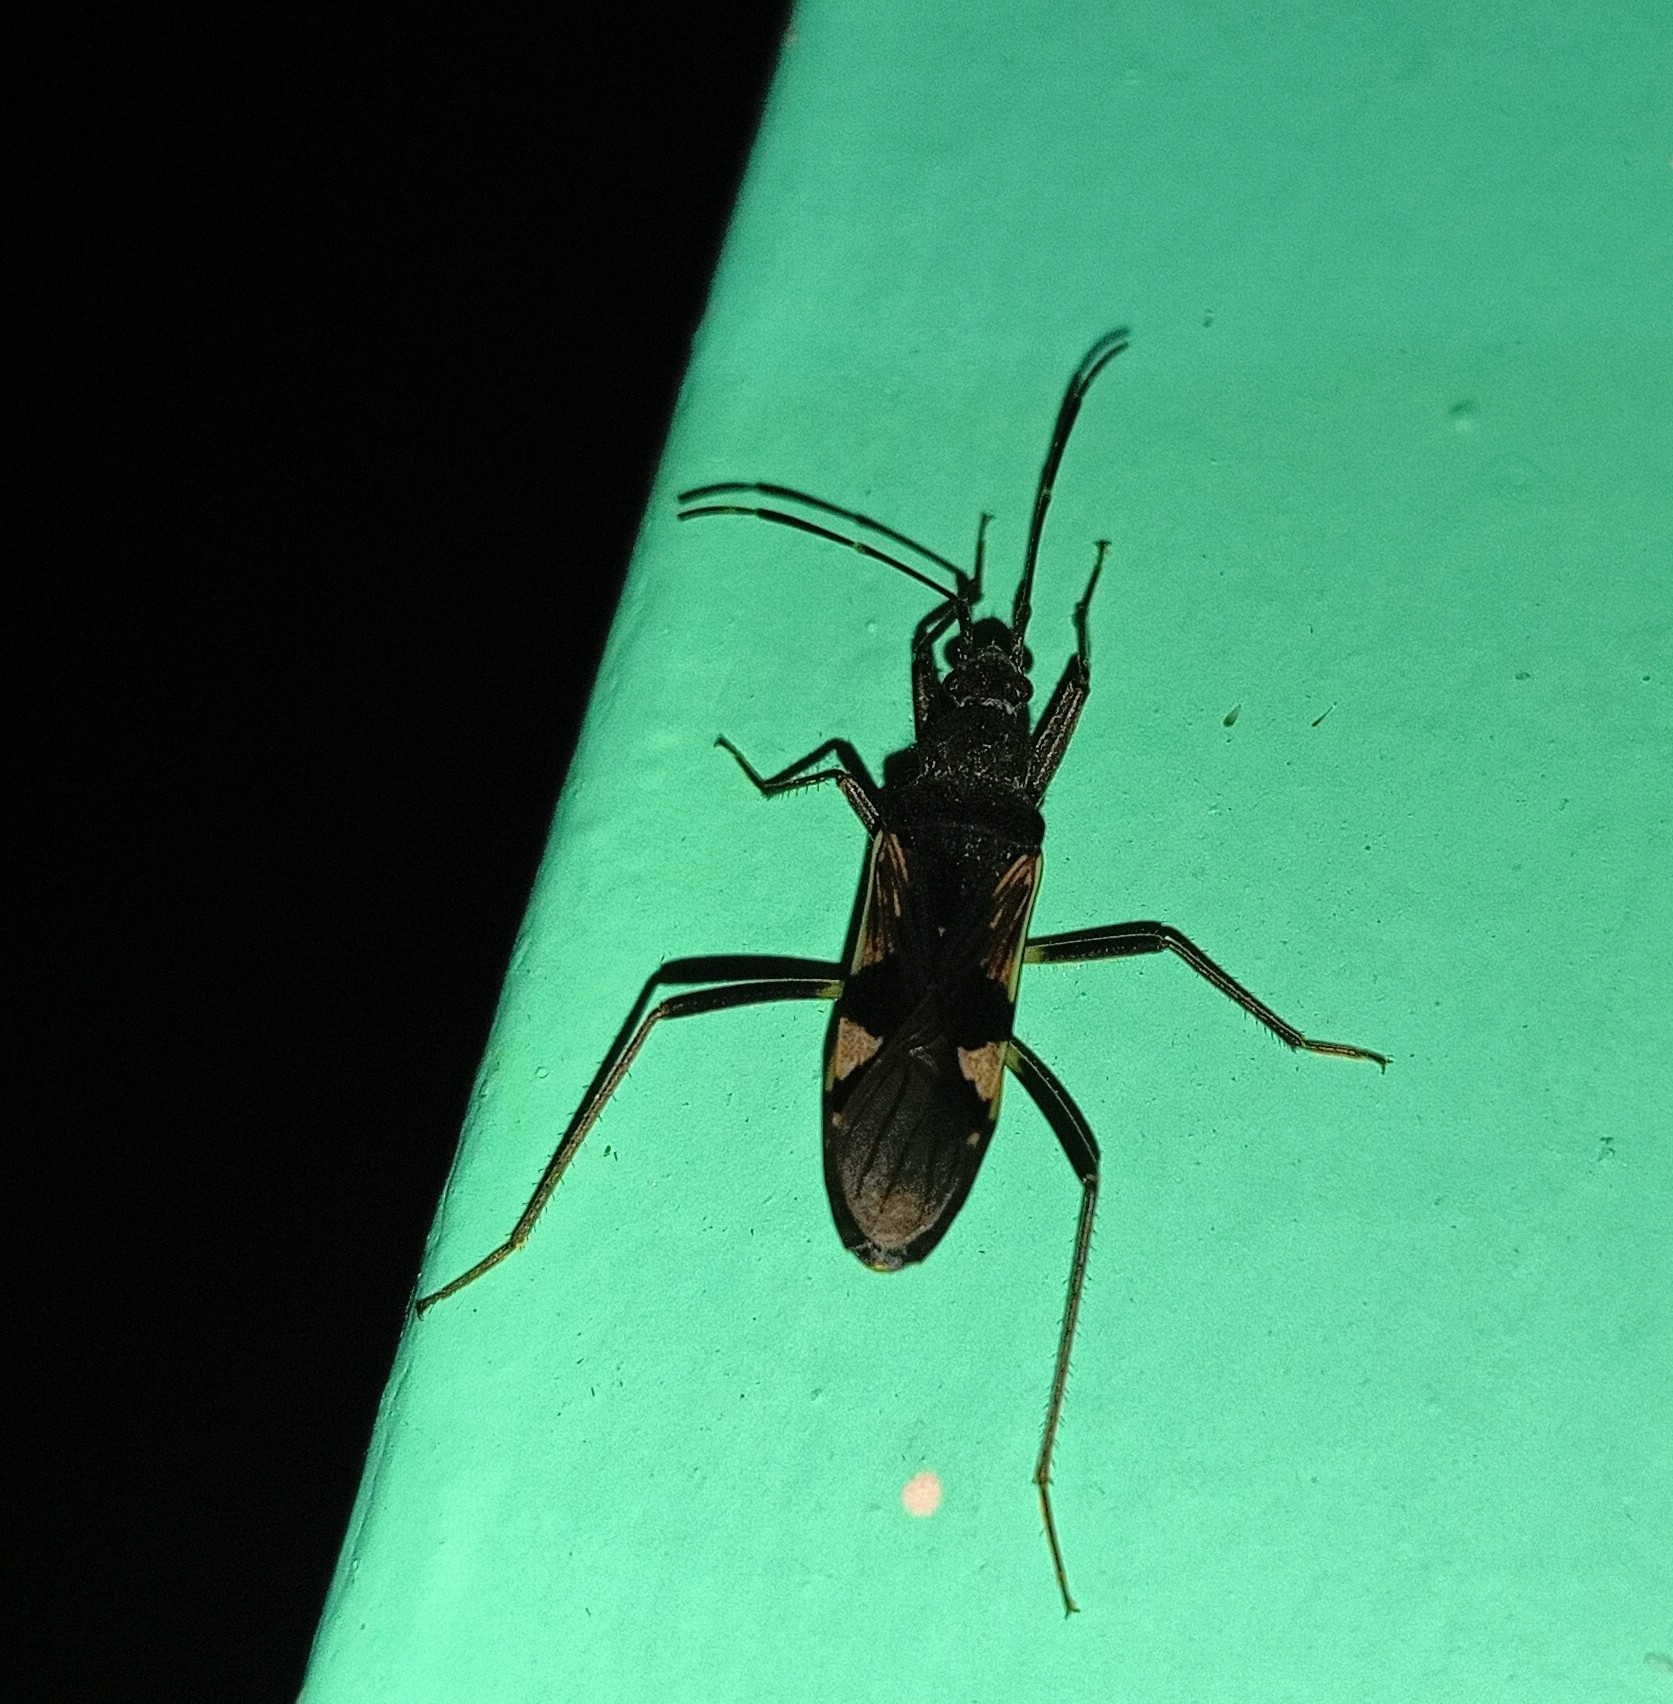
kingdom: Animalia
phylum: Arthropoda
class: Insecta
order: Hemiptera
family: Rhyparochromidae
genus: Metochus
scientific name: Metochus uniguttatus
